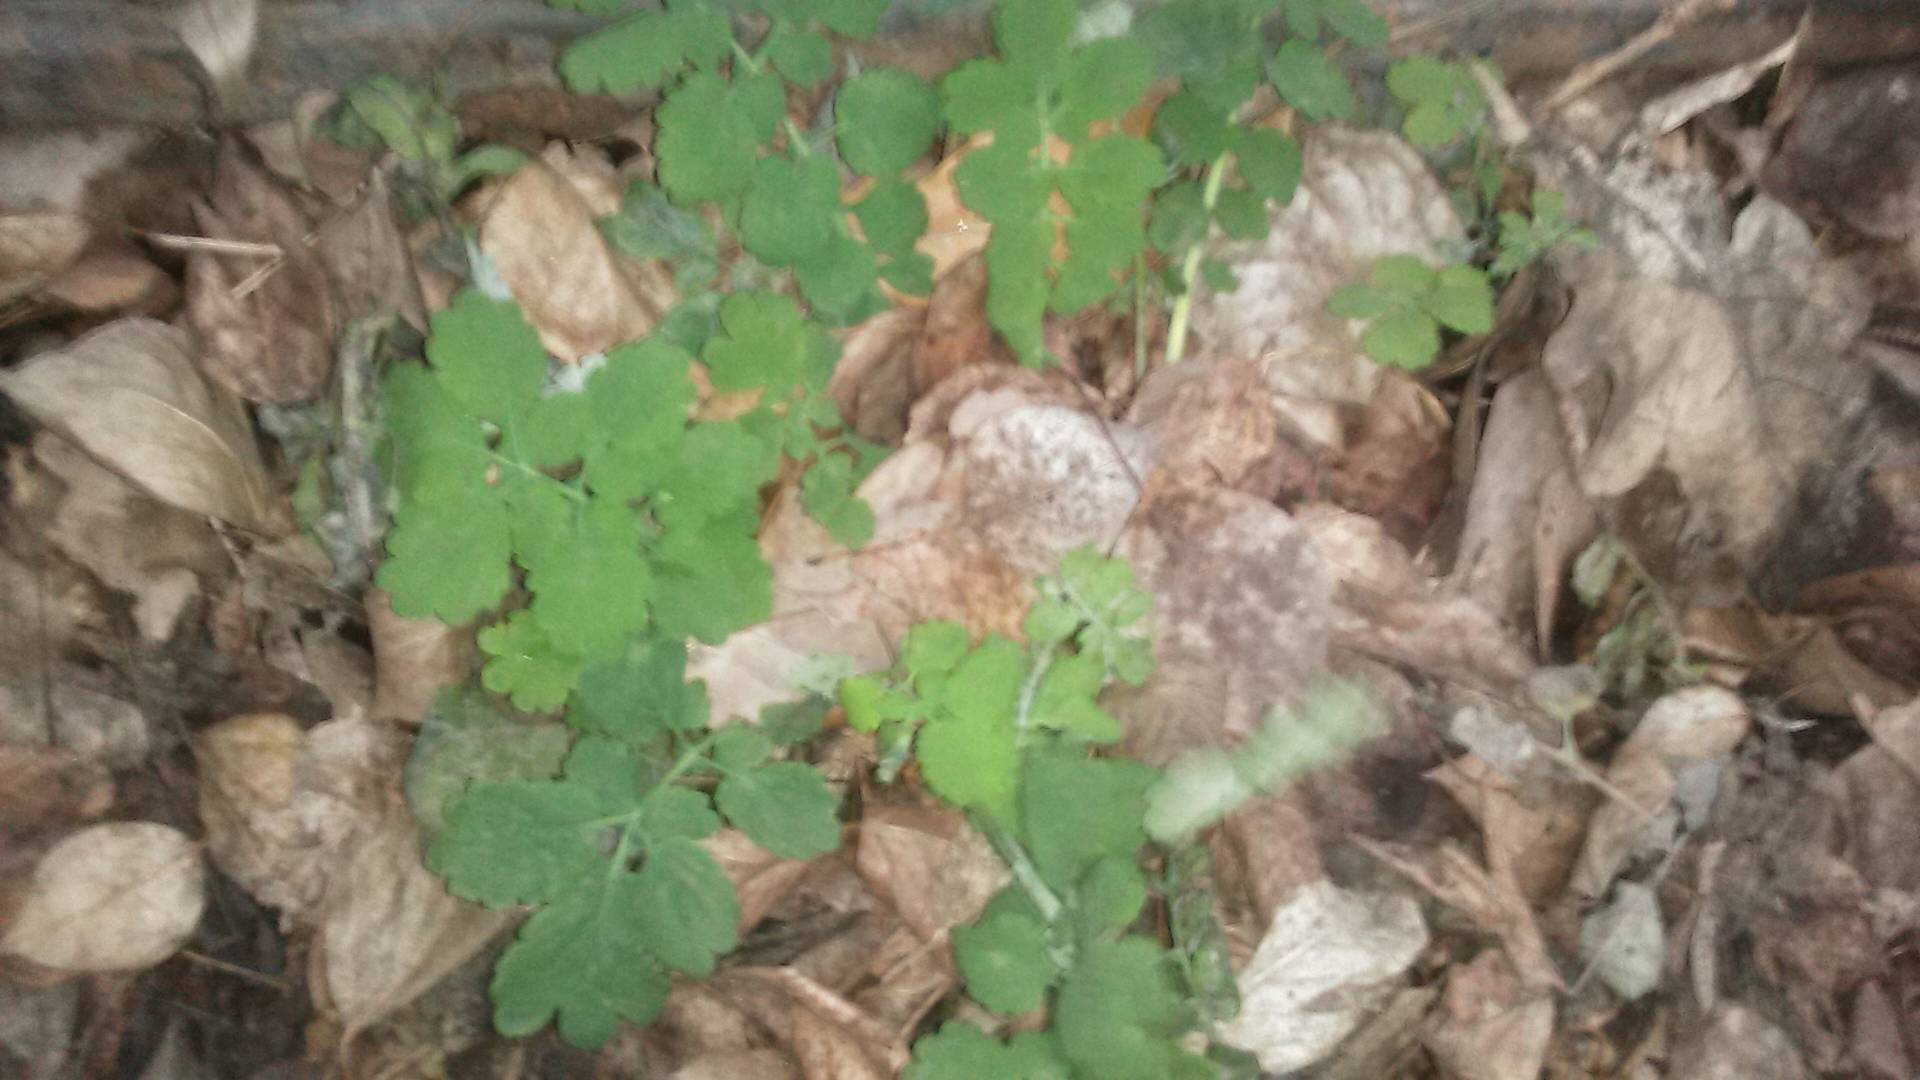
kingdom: Plantae
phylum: Tracheophyta
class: Magnoliopsida
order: Ranunculales
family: Papaveraceae
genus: Chelidonium
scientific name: Chelidonium majus
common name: Greater celandine
